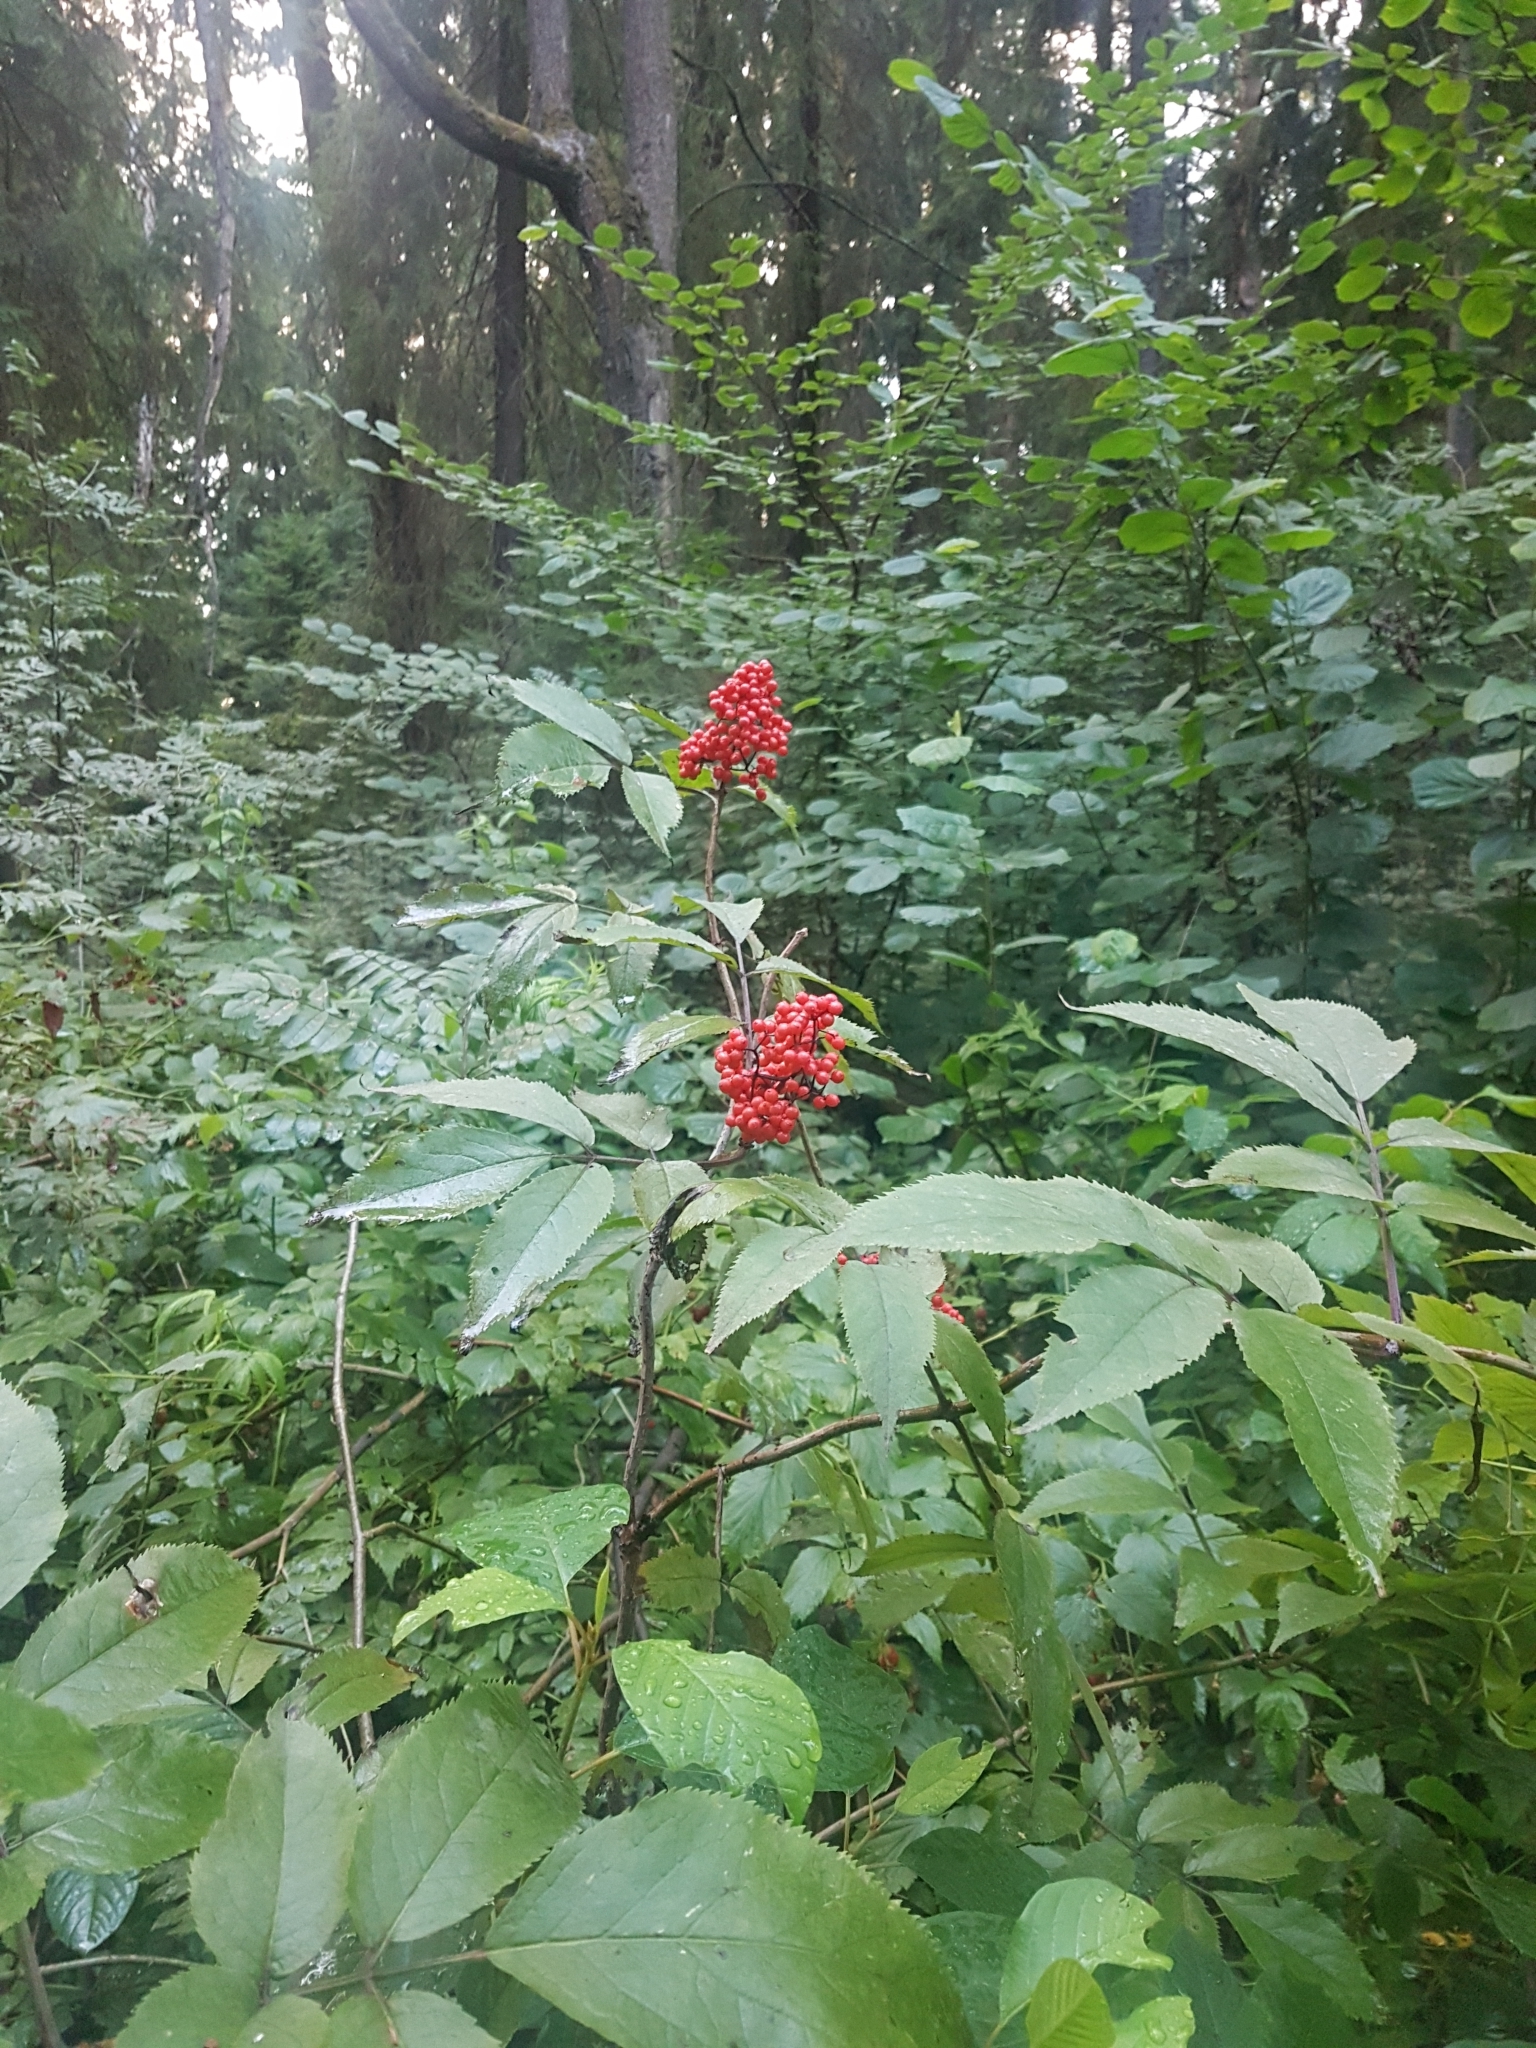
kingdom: Plantae
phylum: Tracheophyta
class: Magnoliopsida
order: Dipsacales
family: Viburnaceae
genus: Sambucus
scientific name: Sambucus racemosa
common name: Red-berried elder
